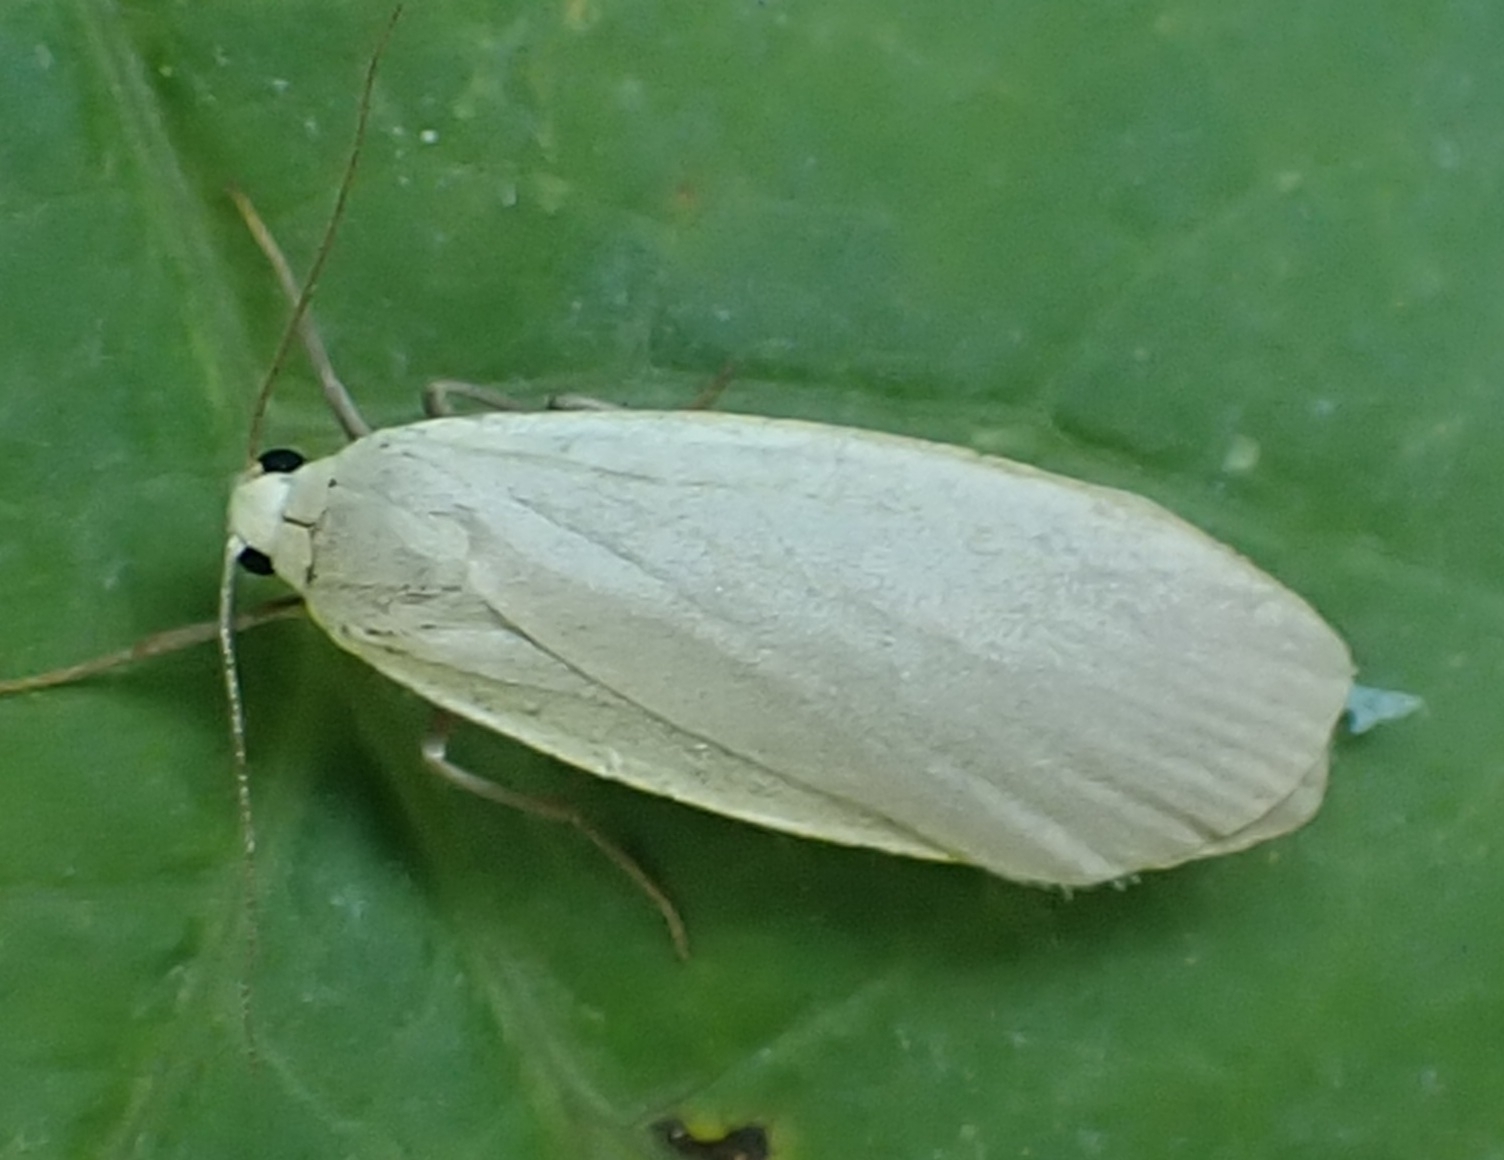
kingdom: Animalia
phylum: Arthropoda
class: Insecta
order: Lepidoptera
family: Erebidae
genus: Collita
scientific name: Collita griseola
